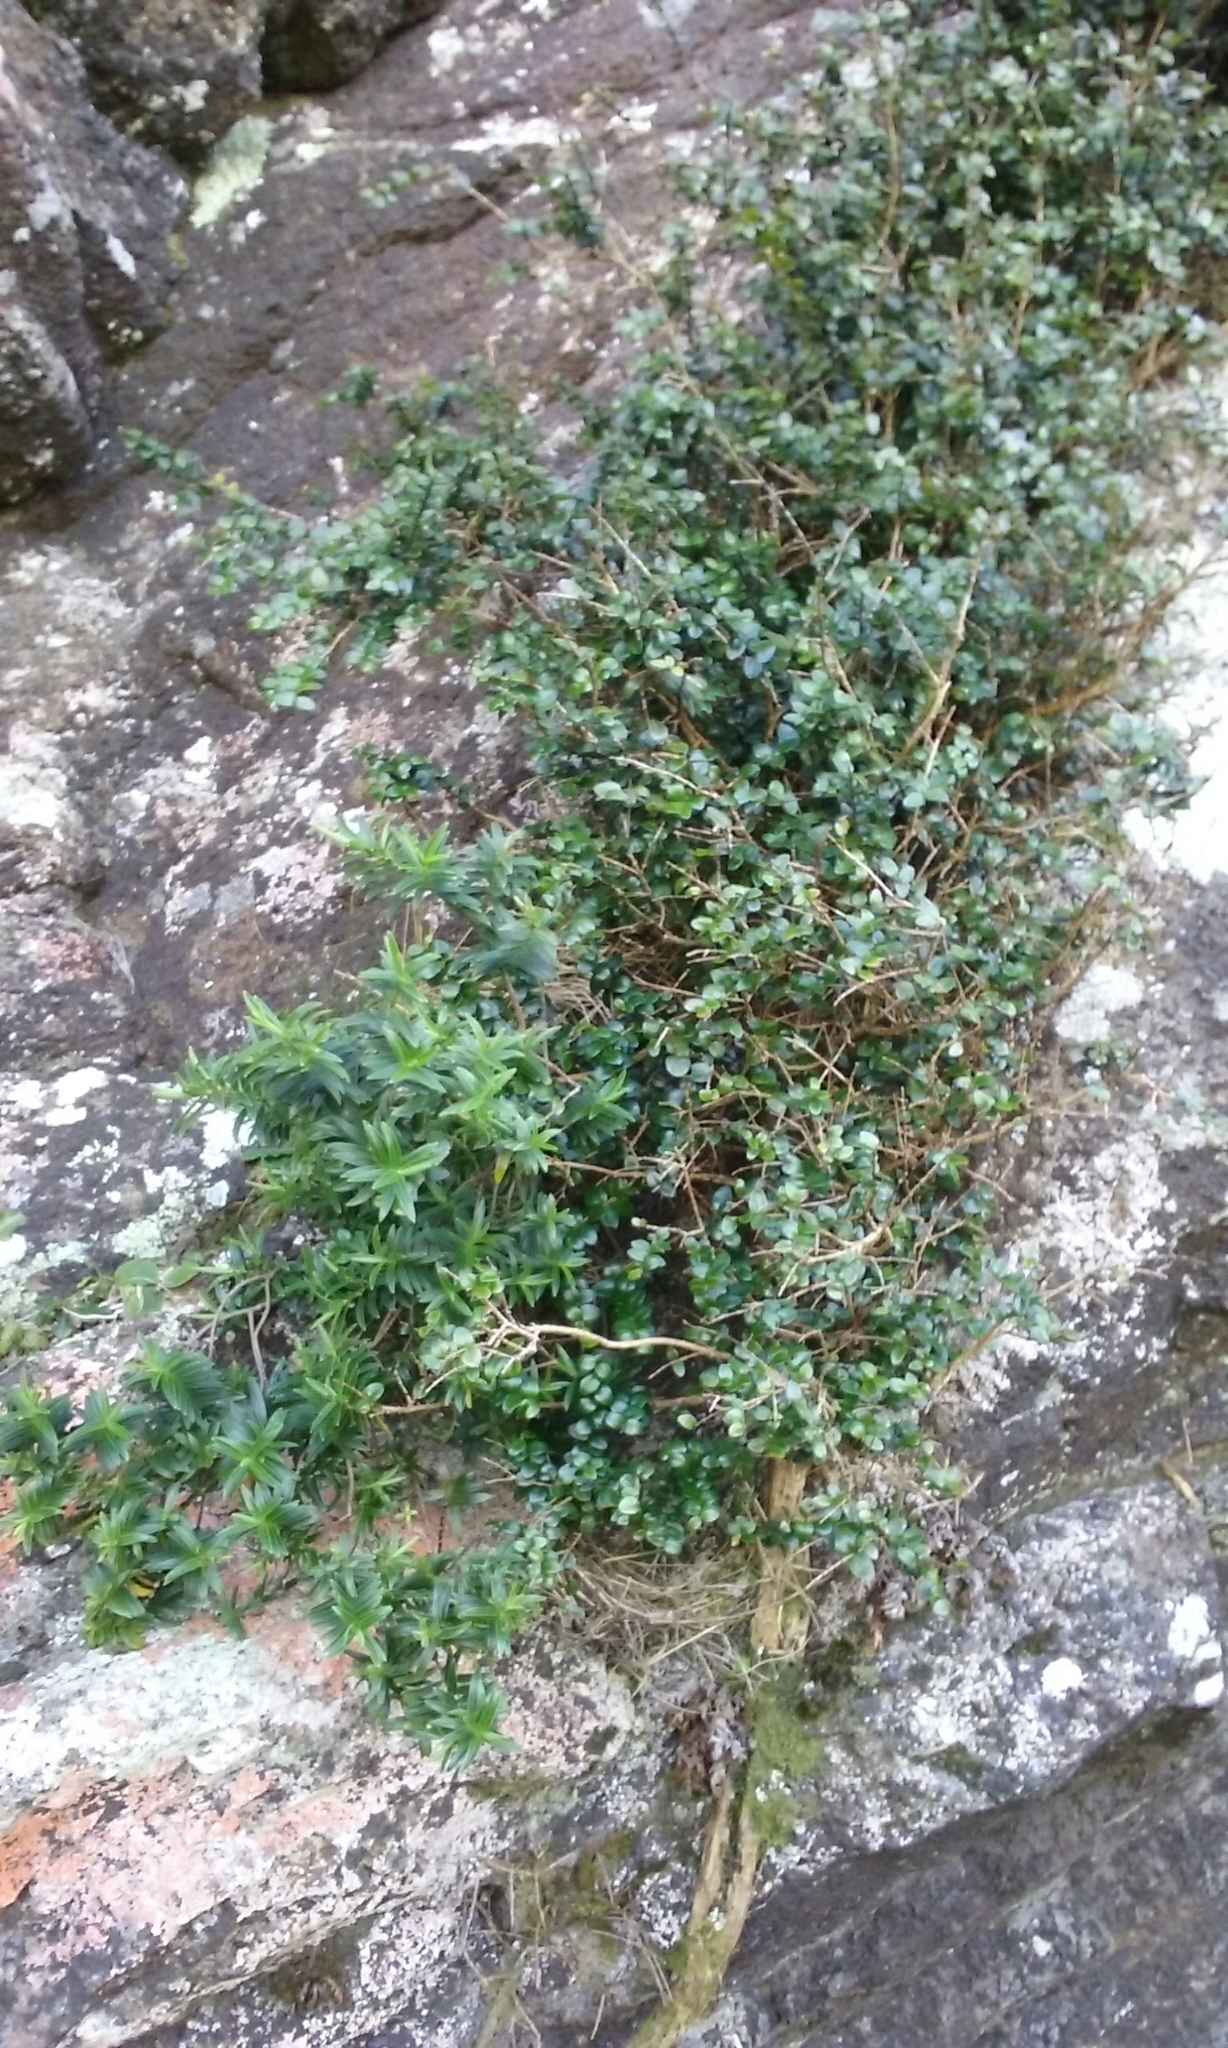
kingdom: Plantae
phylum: Tracheophyta
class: Magnoliopsida
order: Myrtales
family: Myrtaceae
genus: Metrosideros
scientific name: Metrosideros diffusa
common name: Small ratavine
